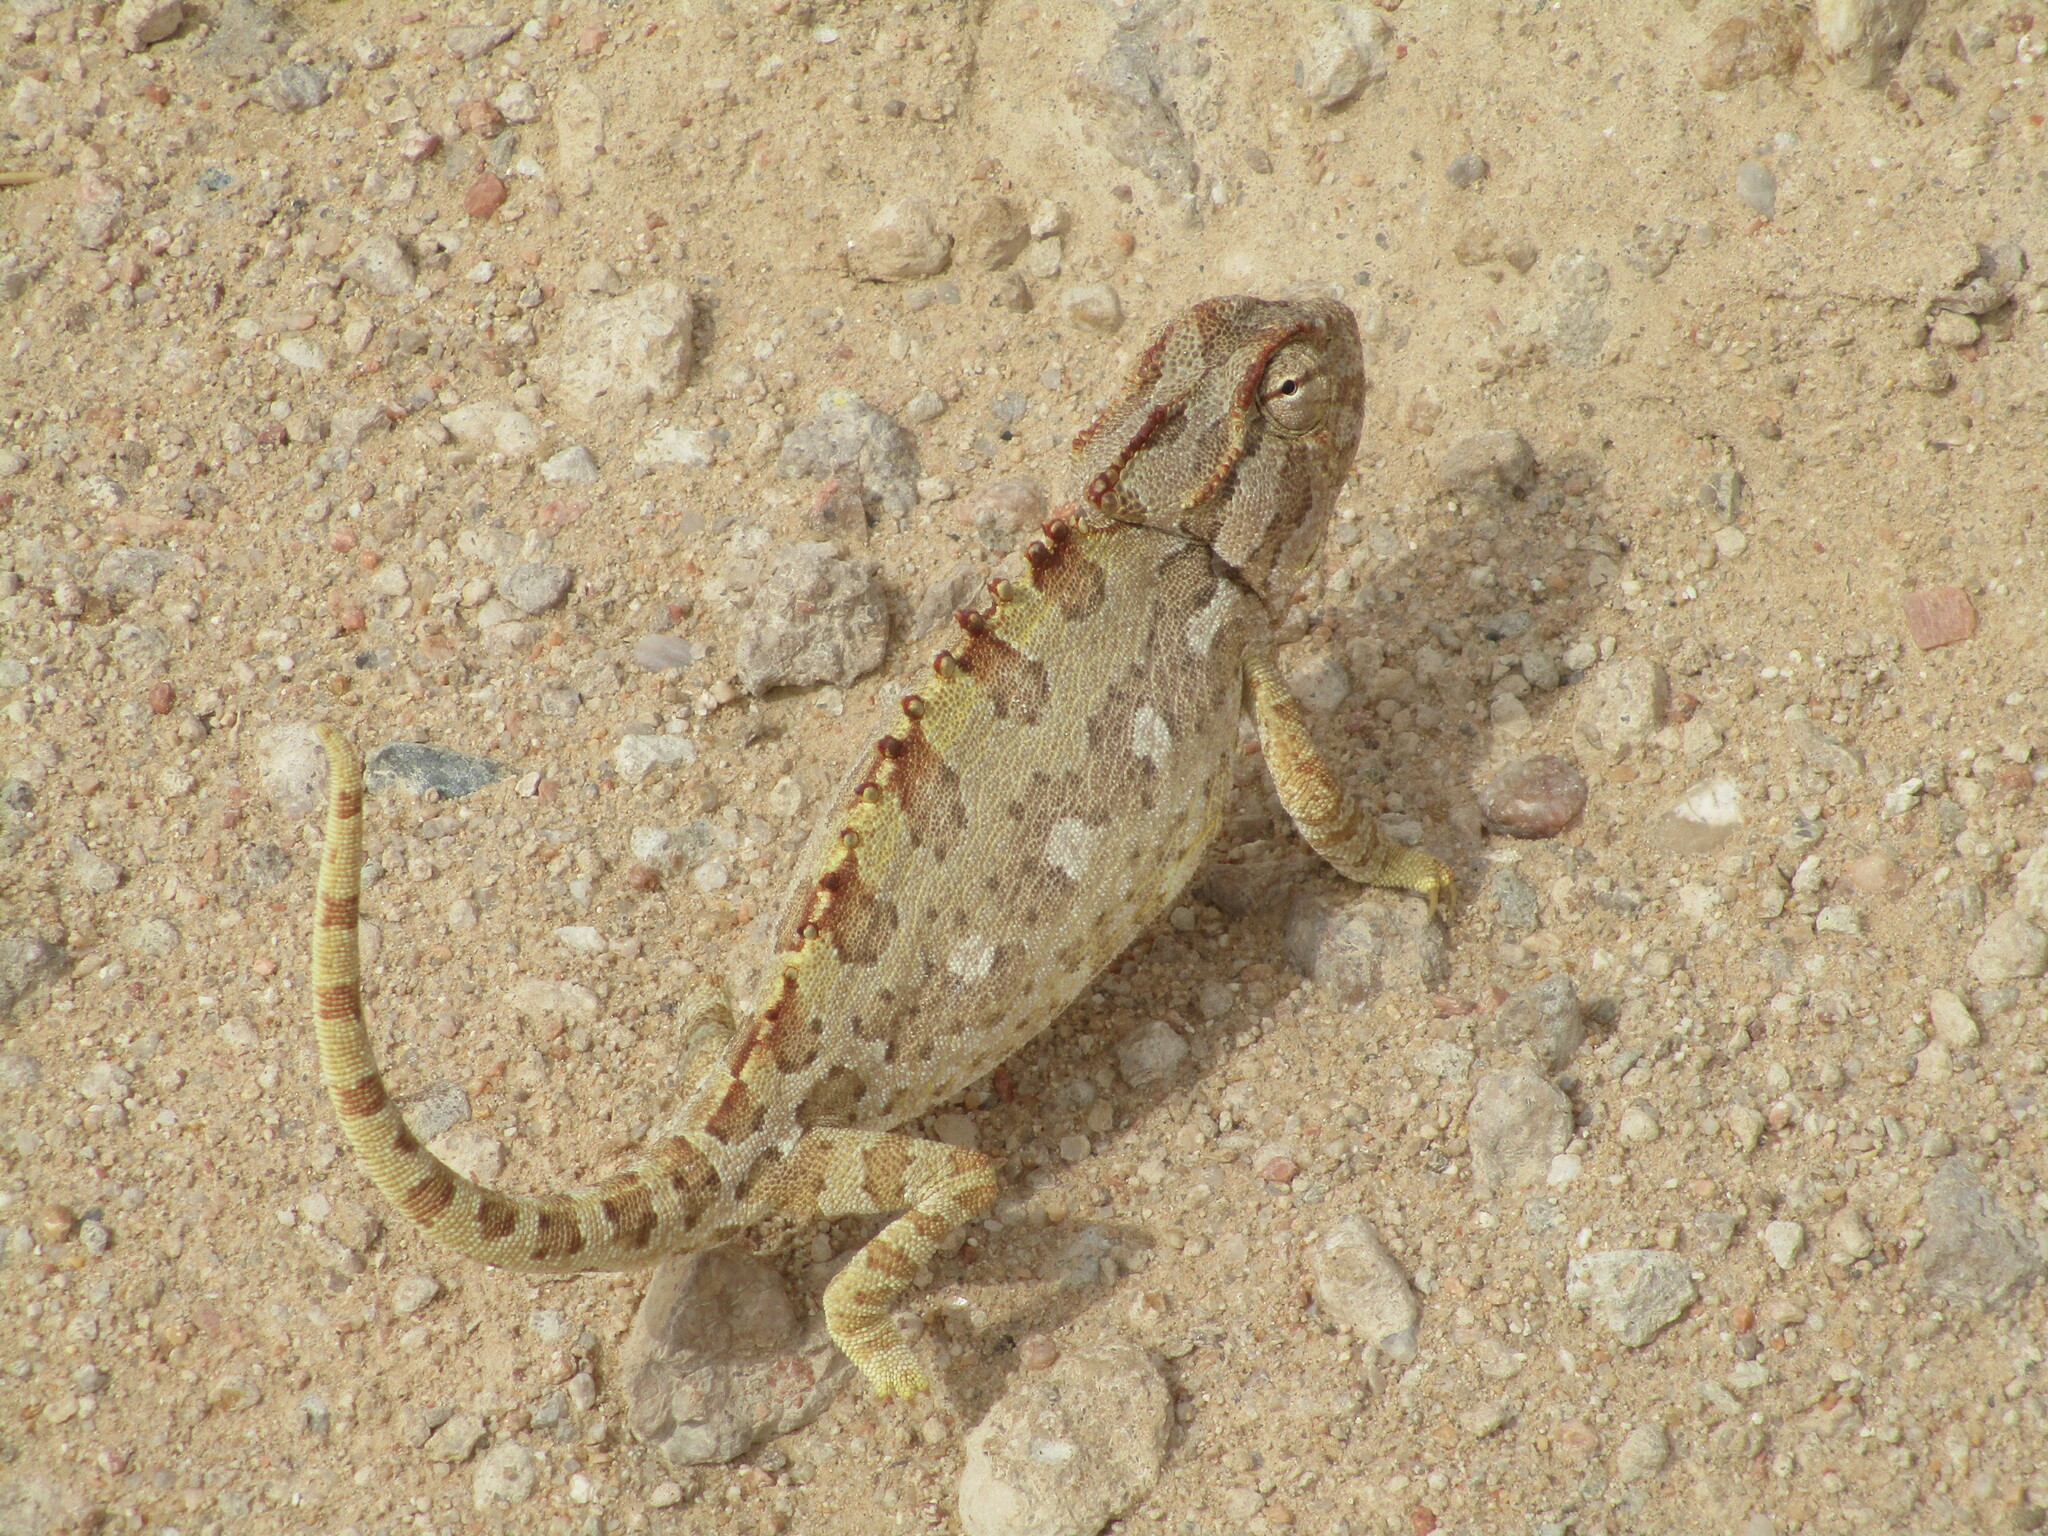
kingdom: Animalia
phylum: Chordata
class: Squamata
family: Chamaeleonidae
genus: Chamaeleo
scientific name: Chamaeleo namaquensis
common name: Namaqua chameleon
